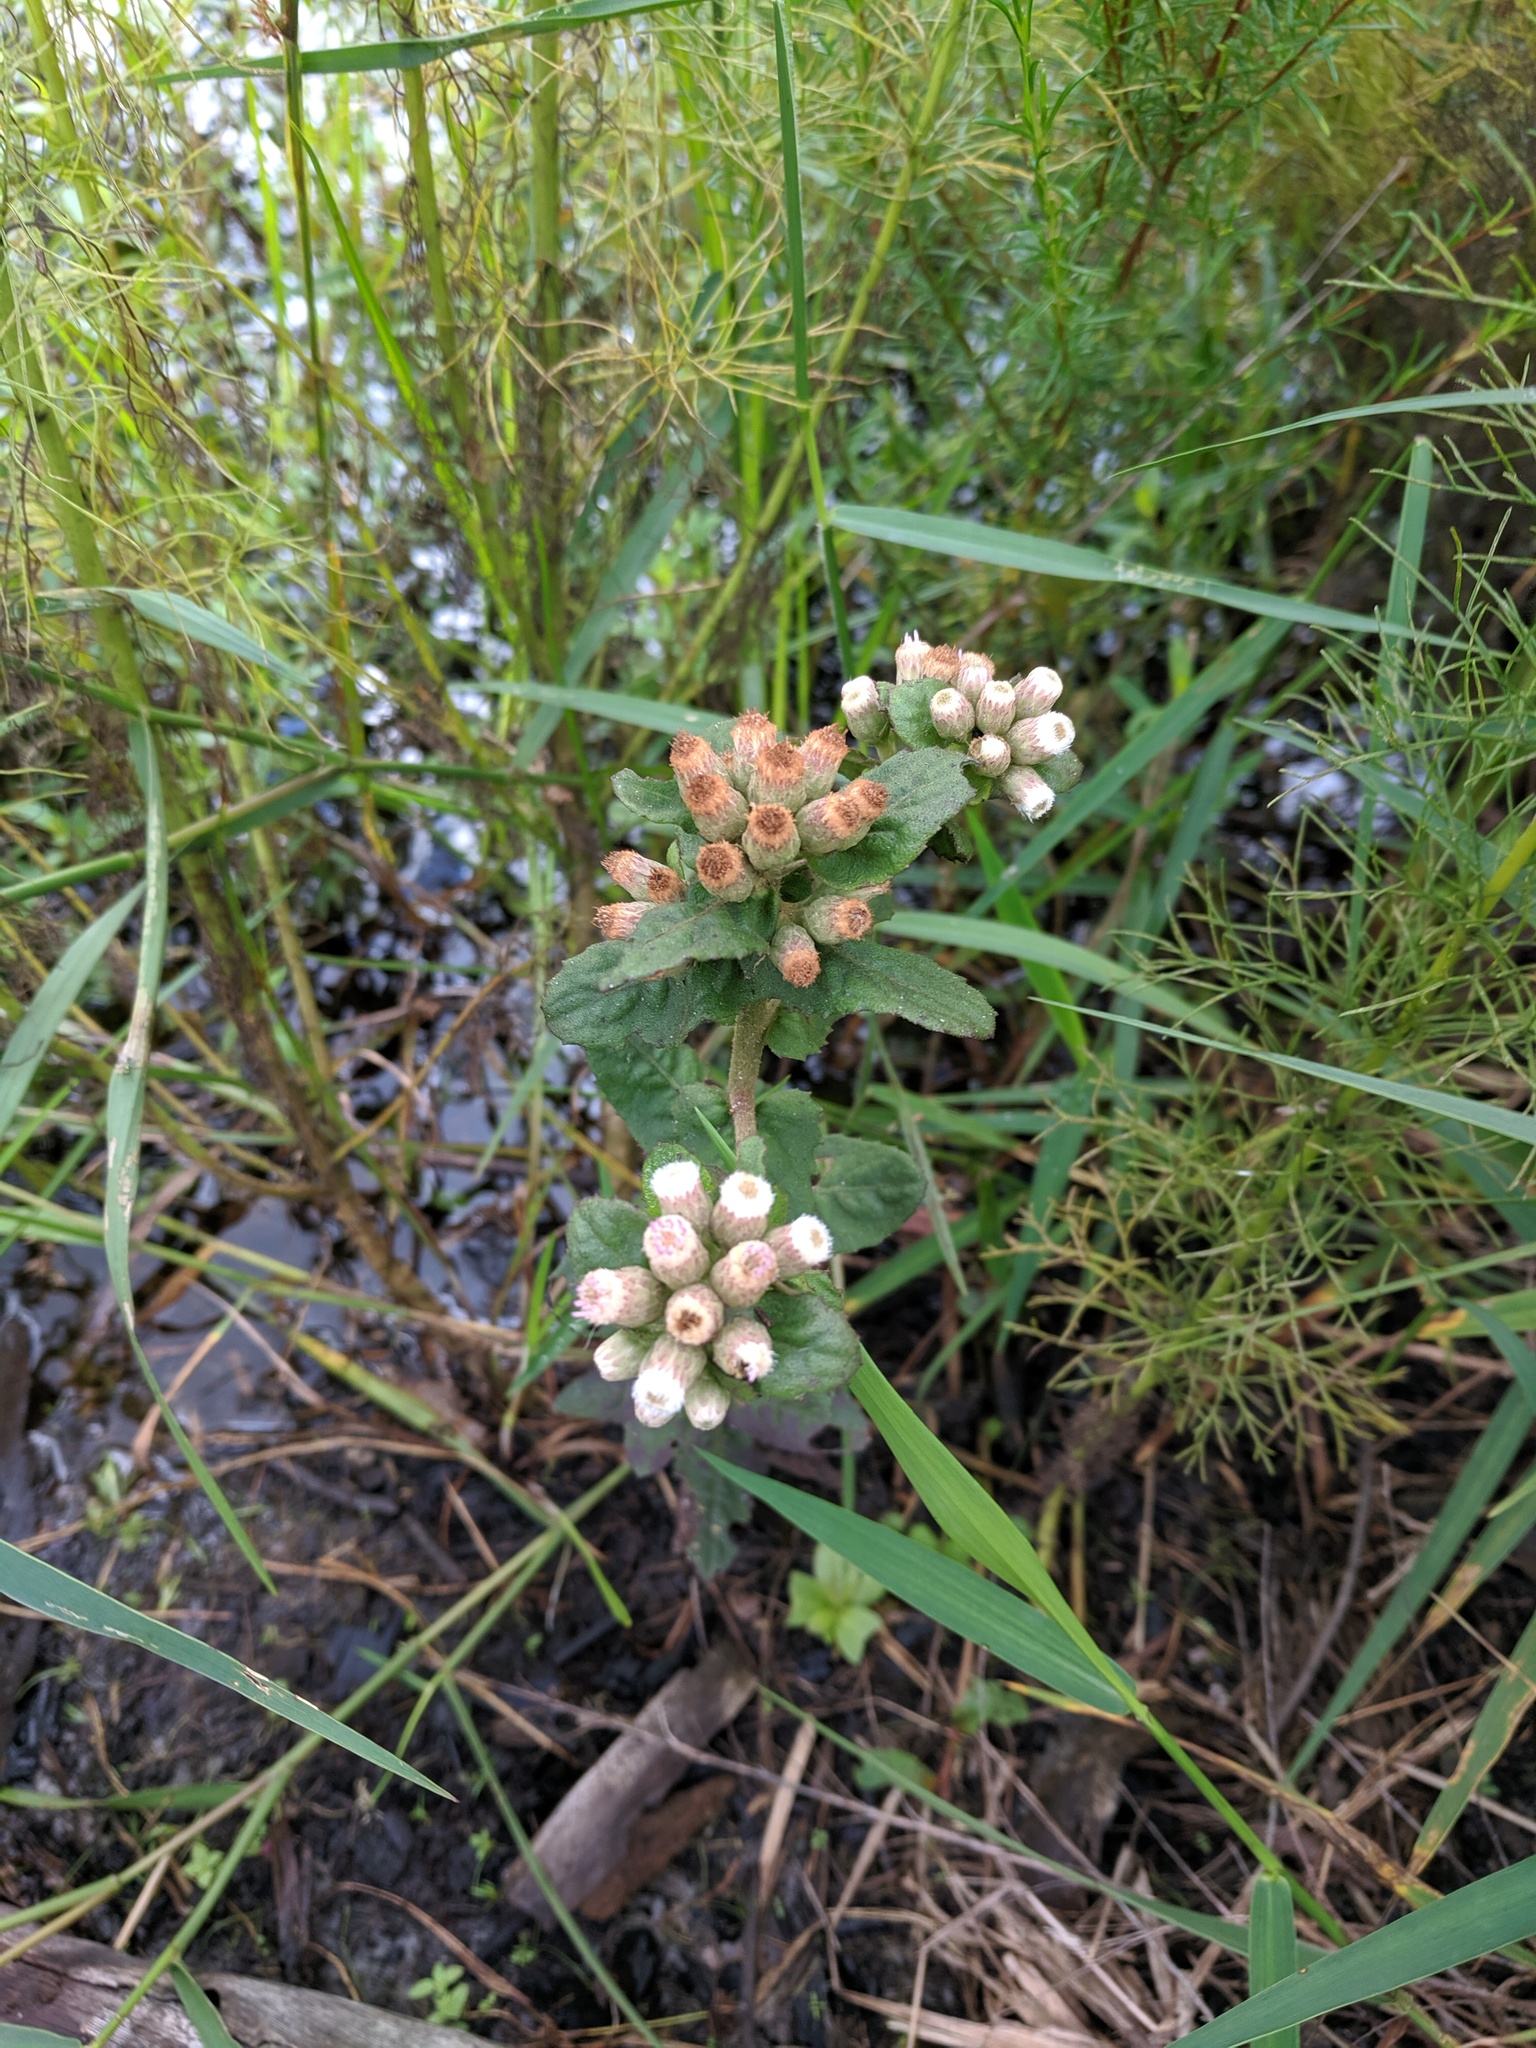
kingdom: Plantae
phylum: Tracheophyta
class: Magnoliopsida
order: Asterales
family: Asteraceae
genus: Pluchea
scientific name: Pluchea foetida
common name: Stinking camphorweed
